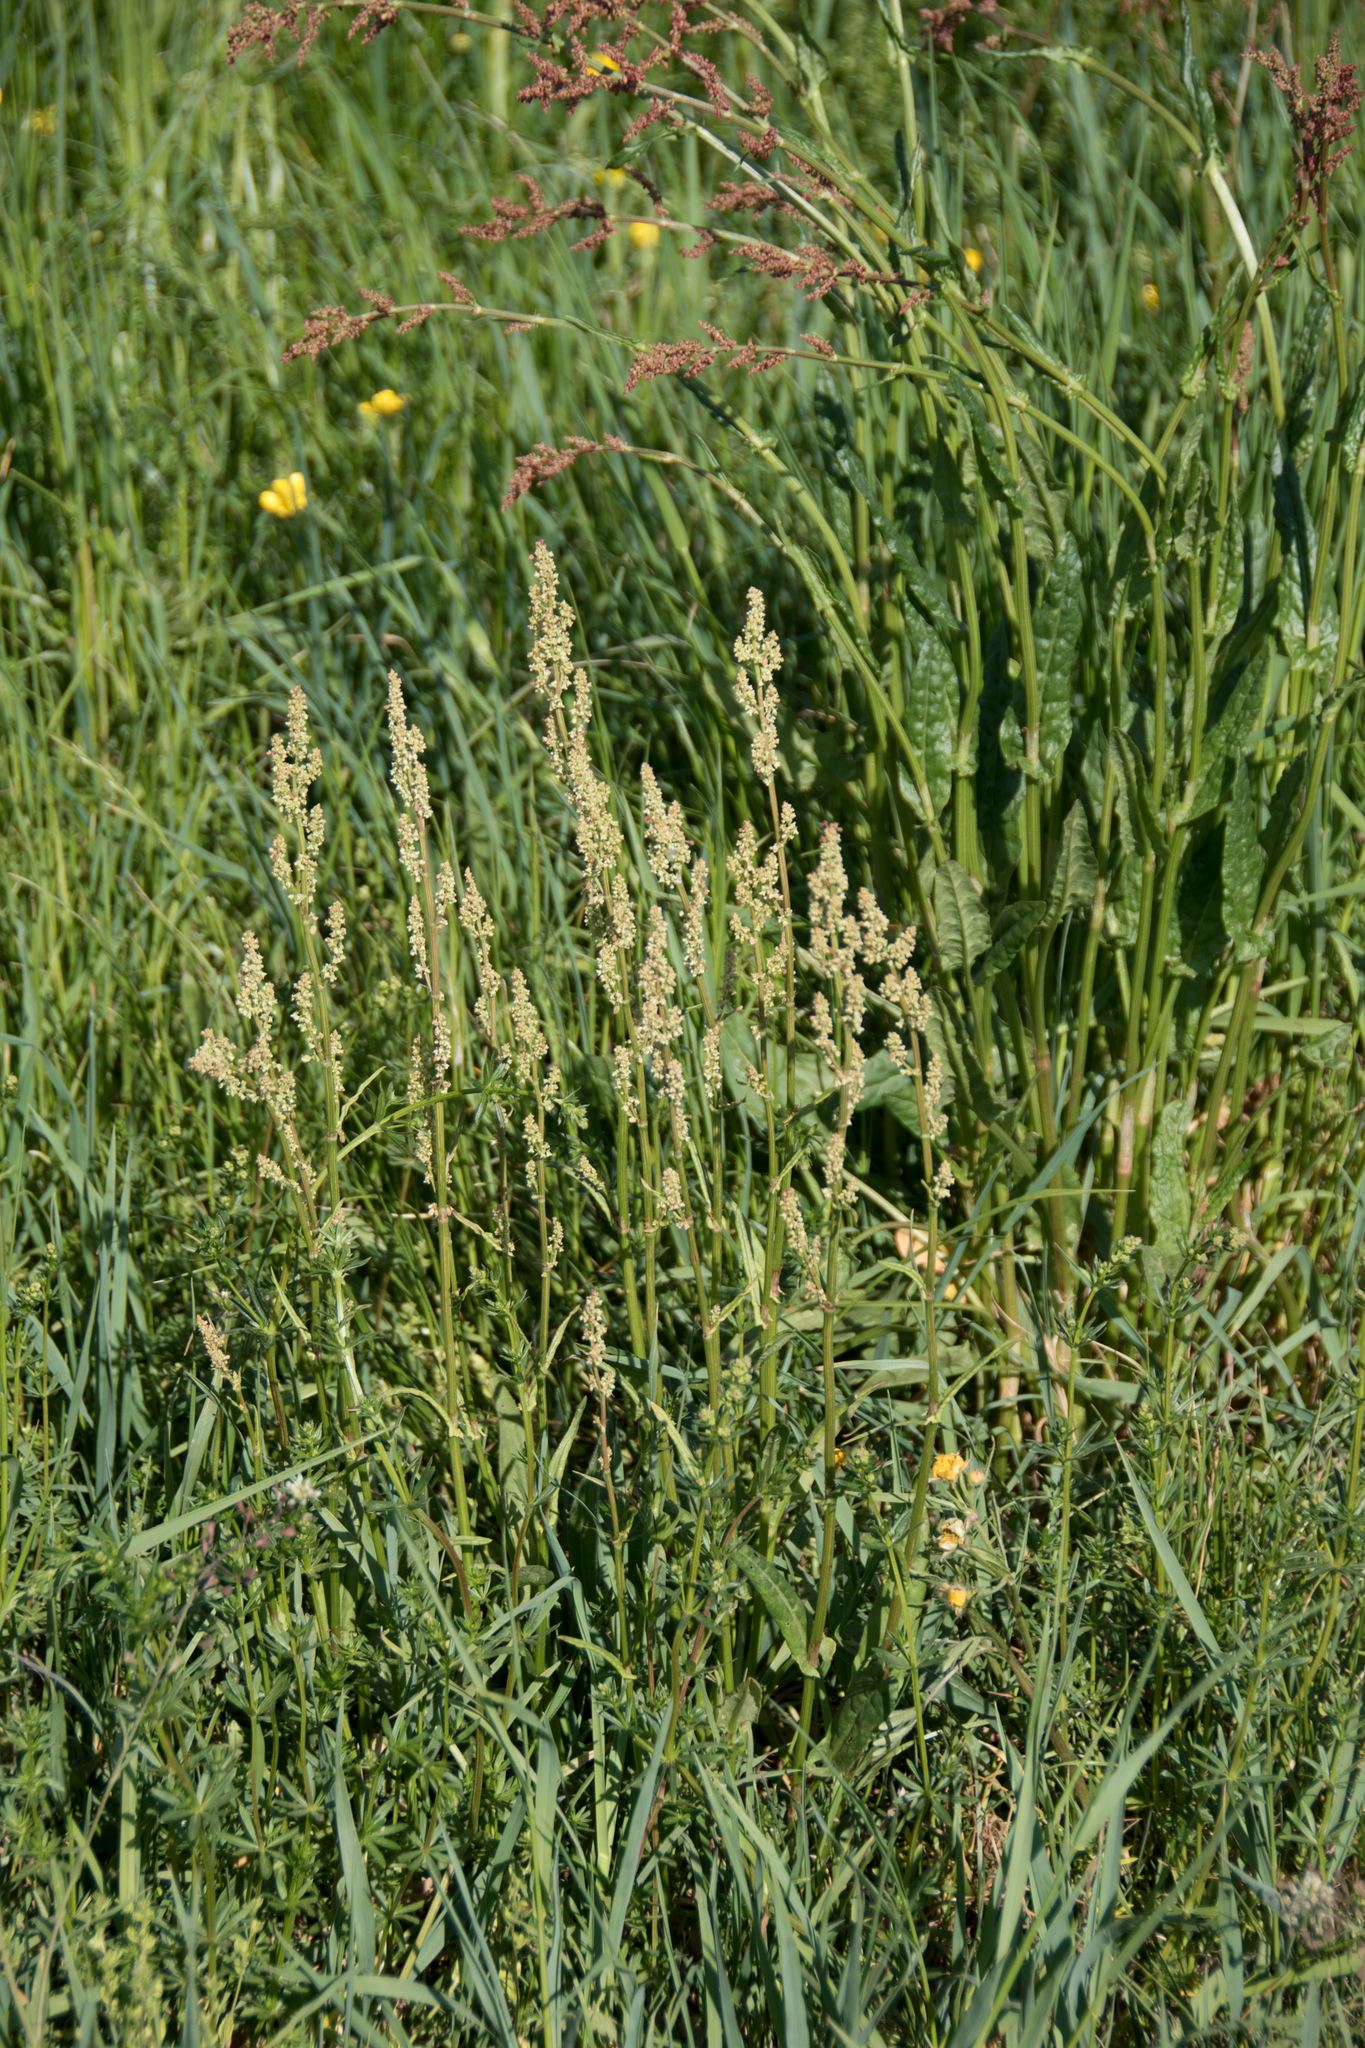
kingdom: Plantae
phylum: Tracheophyta
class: Magnoliopsida
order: Caryophyllales
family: Polygonaceae
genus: Rumex
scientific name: Rumex acetosa
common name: Garden sorrel
